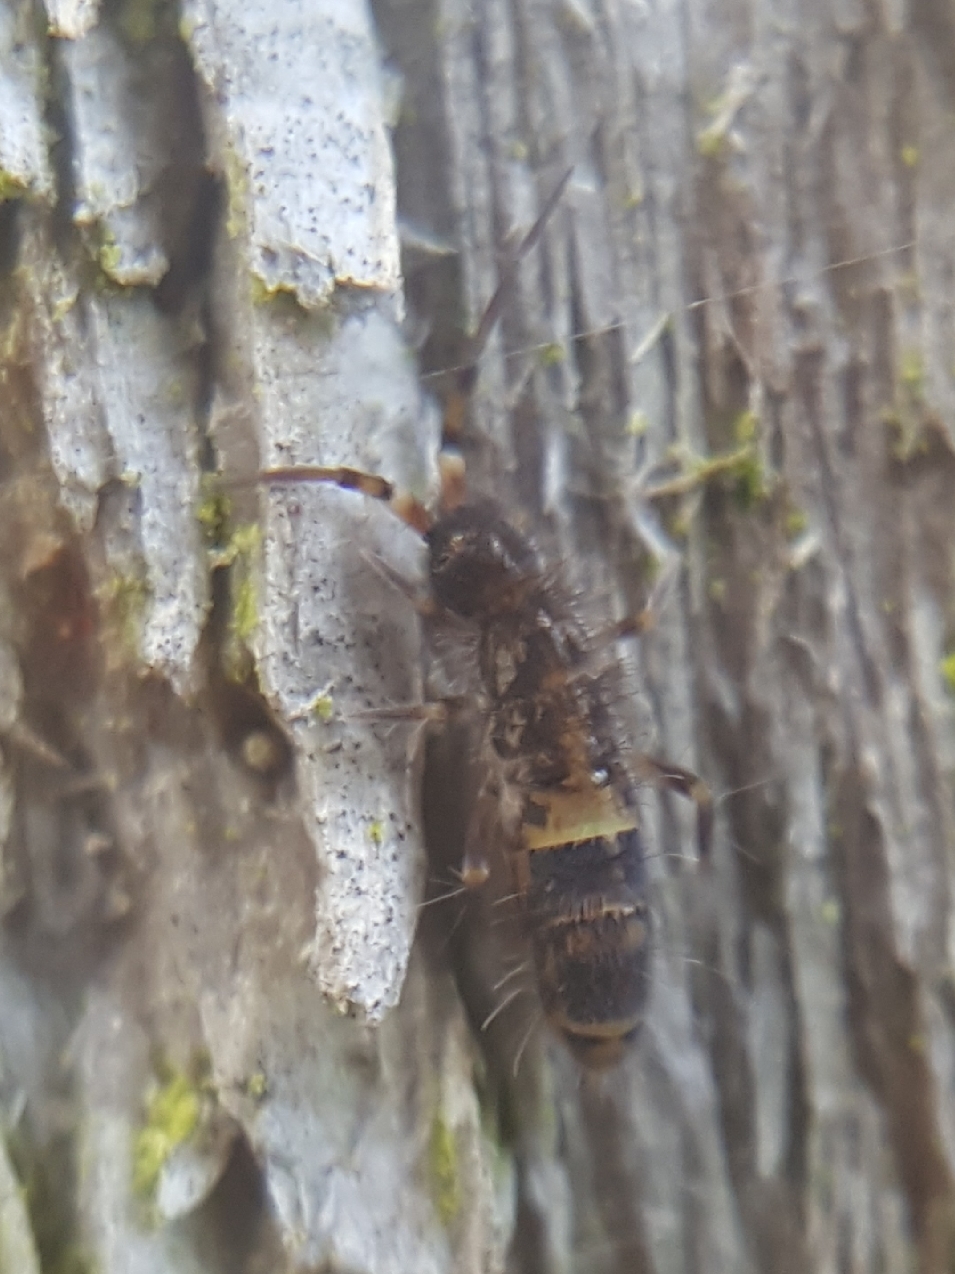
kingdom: Animalia
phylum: Arthropoda
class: Collembola
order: Entomobryomorpha
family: Orchesellidae
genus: Orchesella
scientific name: Orchesella cincta
